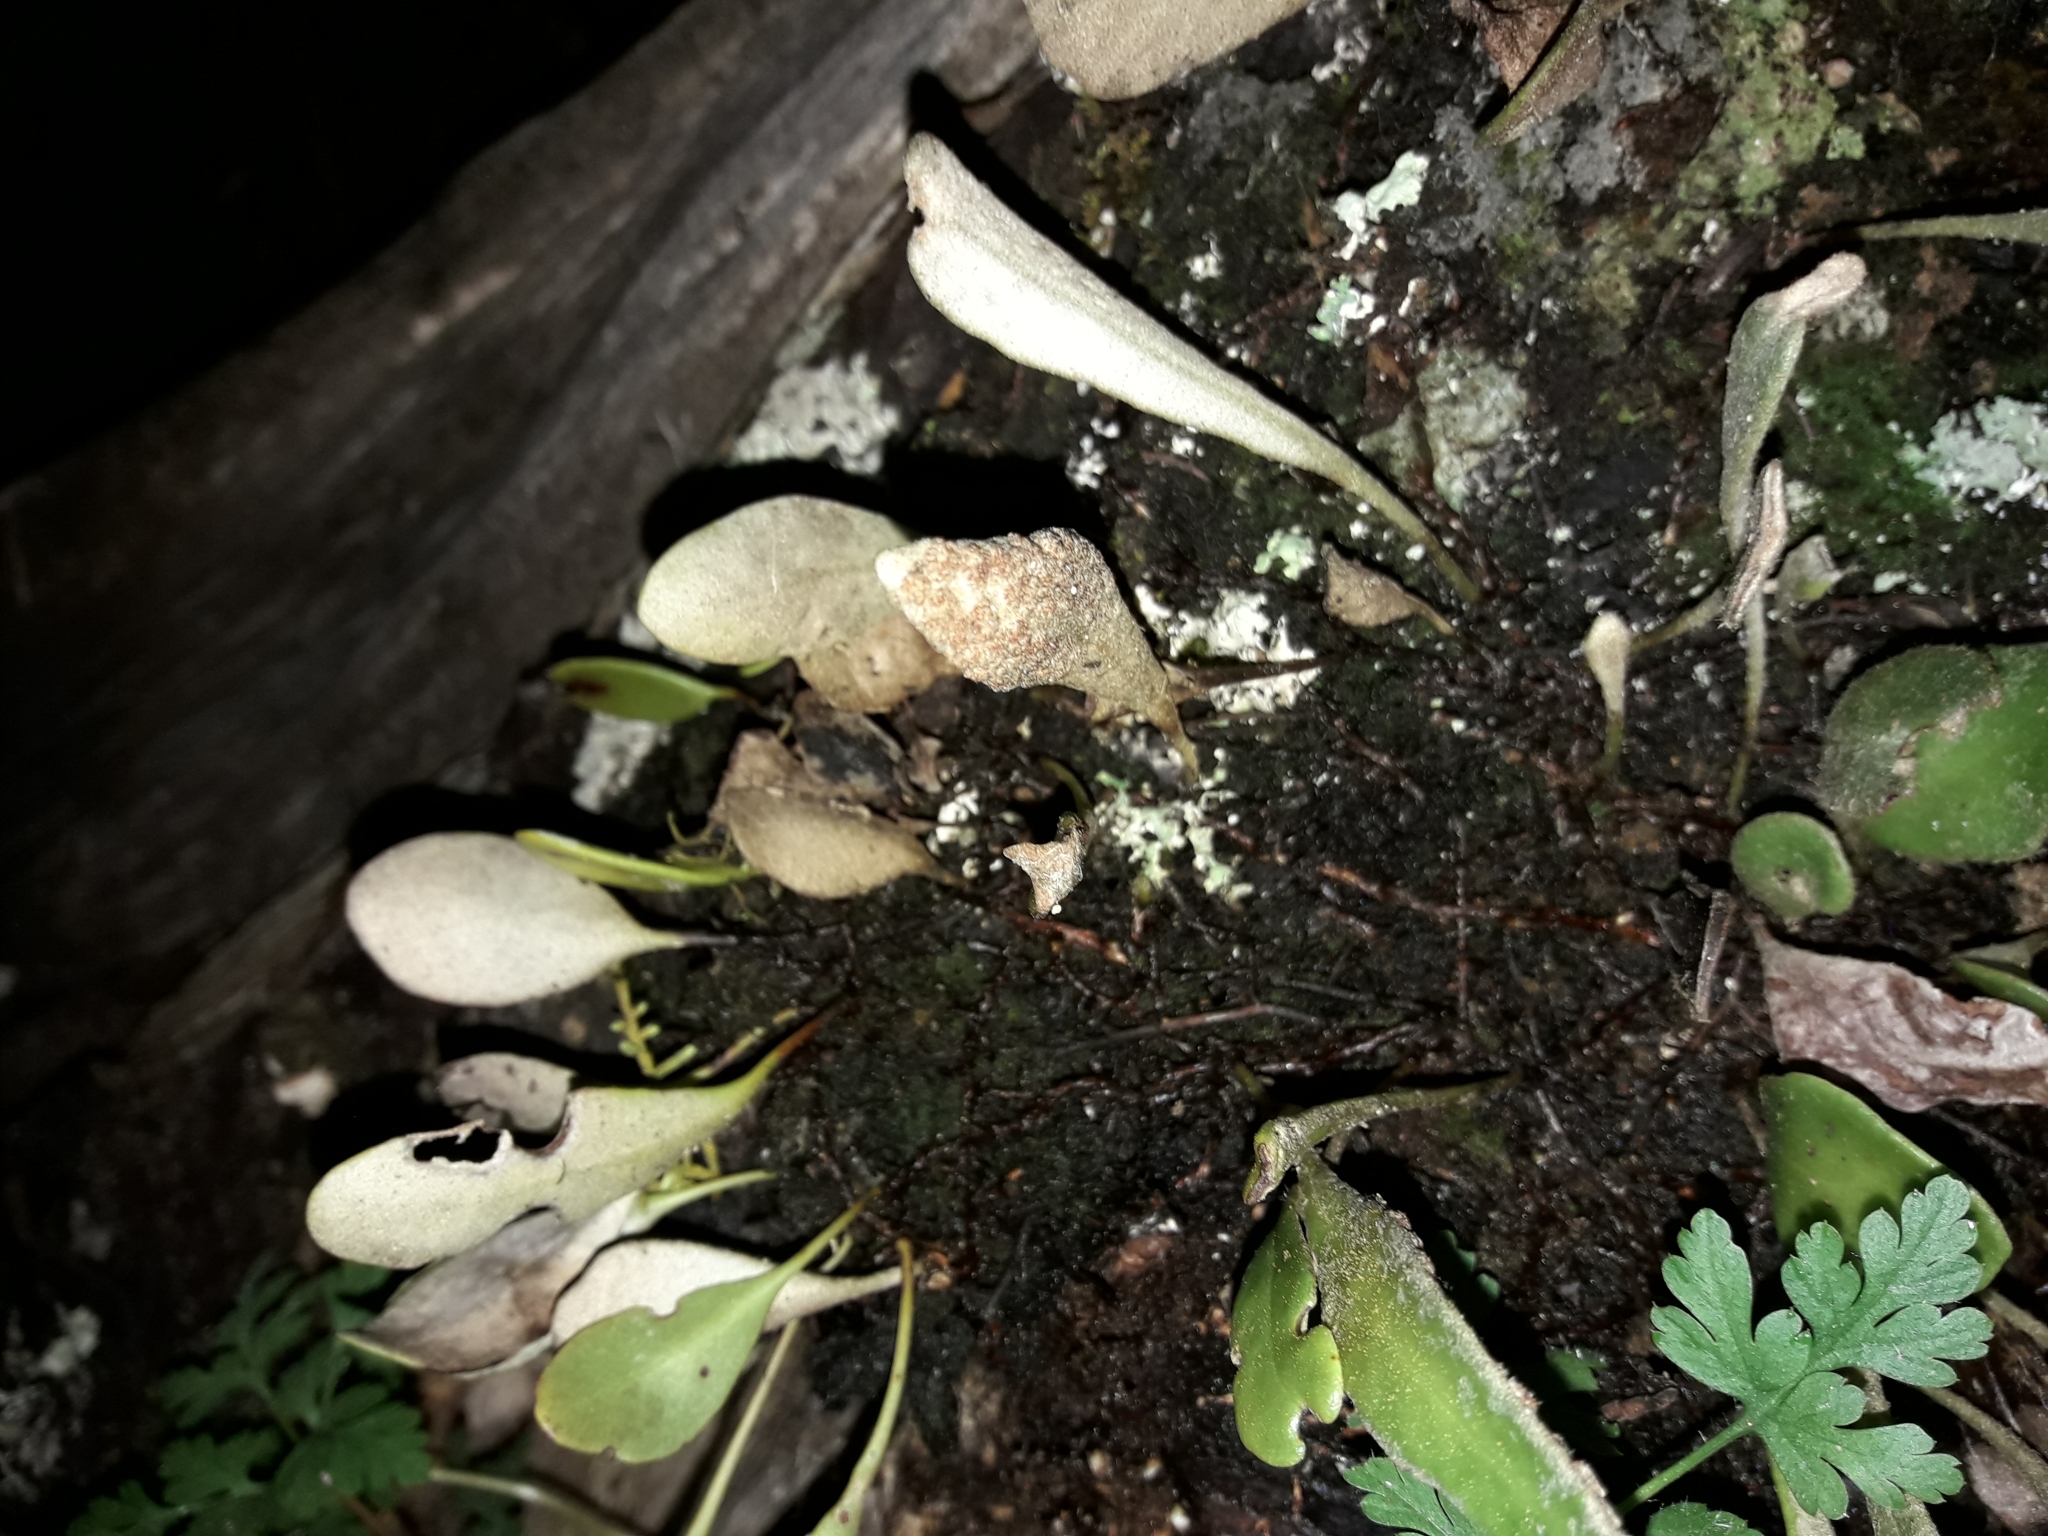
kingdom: Plantae
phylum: Tracheophyta
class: Polypodiopsida
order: Polypodiales
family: Polypodiaceae
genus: Pyrrosia
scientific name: Pyrrosia eleagnifolia
